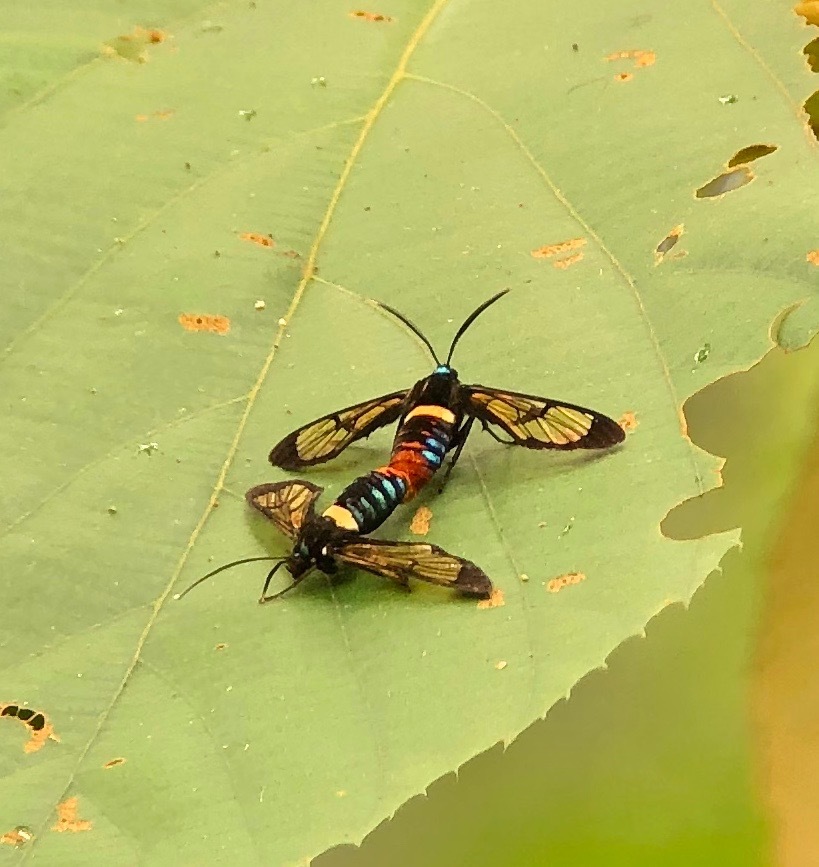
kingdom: Animalia
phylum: Arthropoda
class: Insecta
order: Lepidoptera
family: Erebidae
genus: Autochloris
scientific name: Autochloris jansonis
